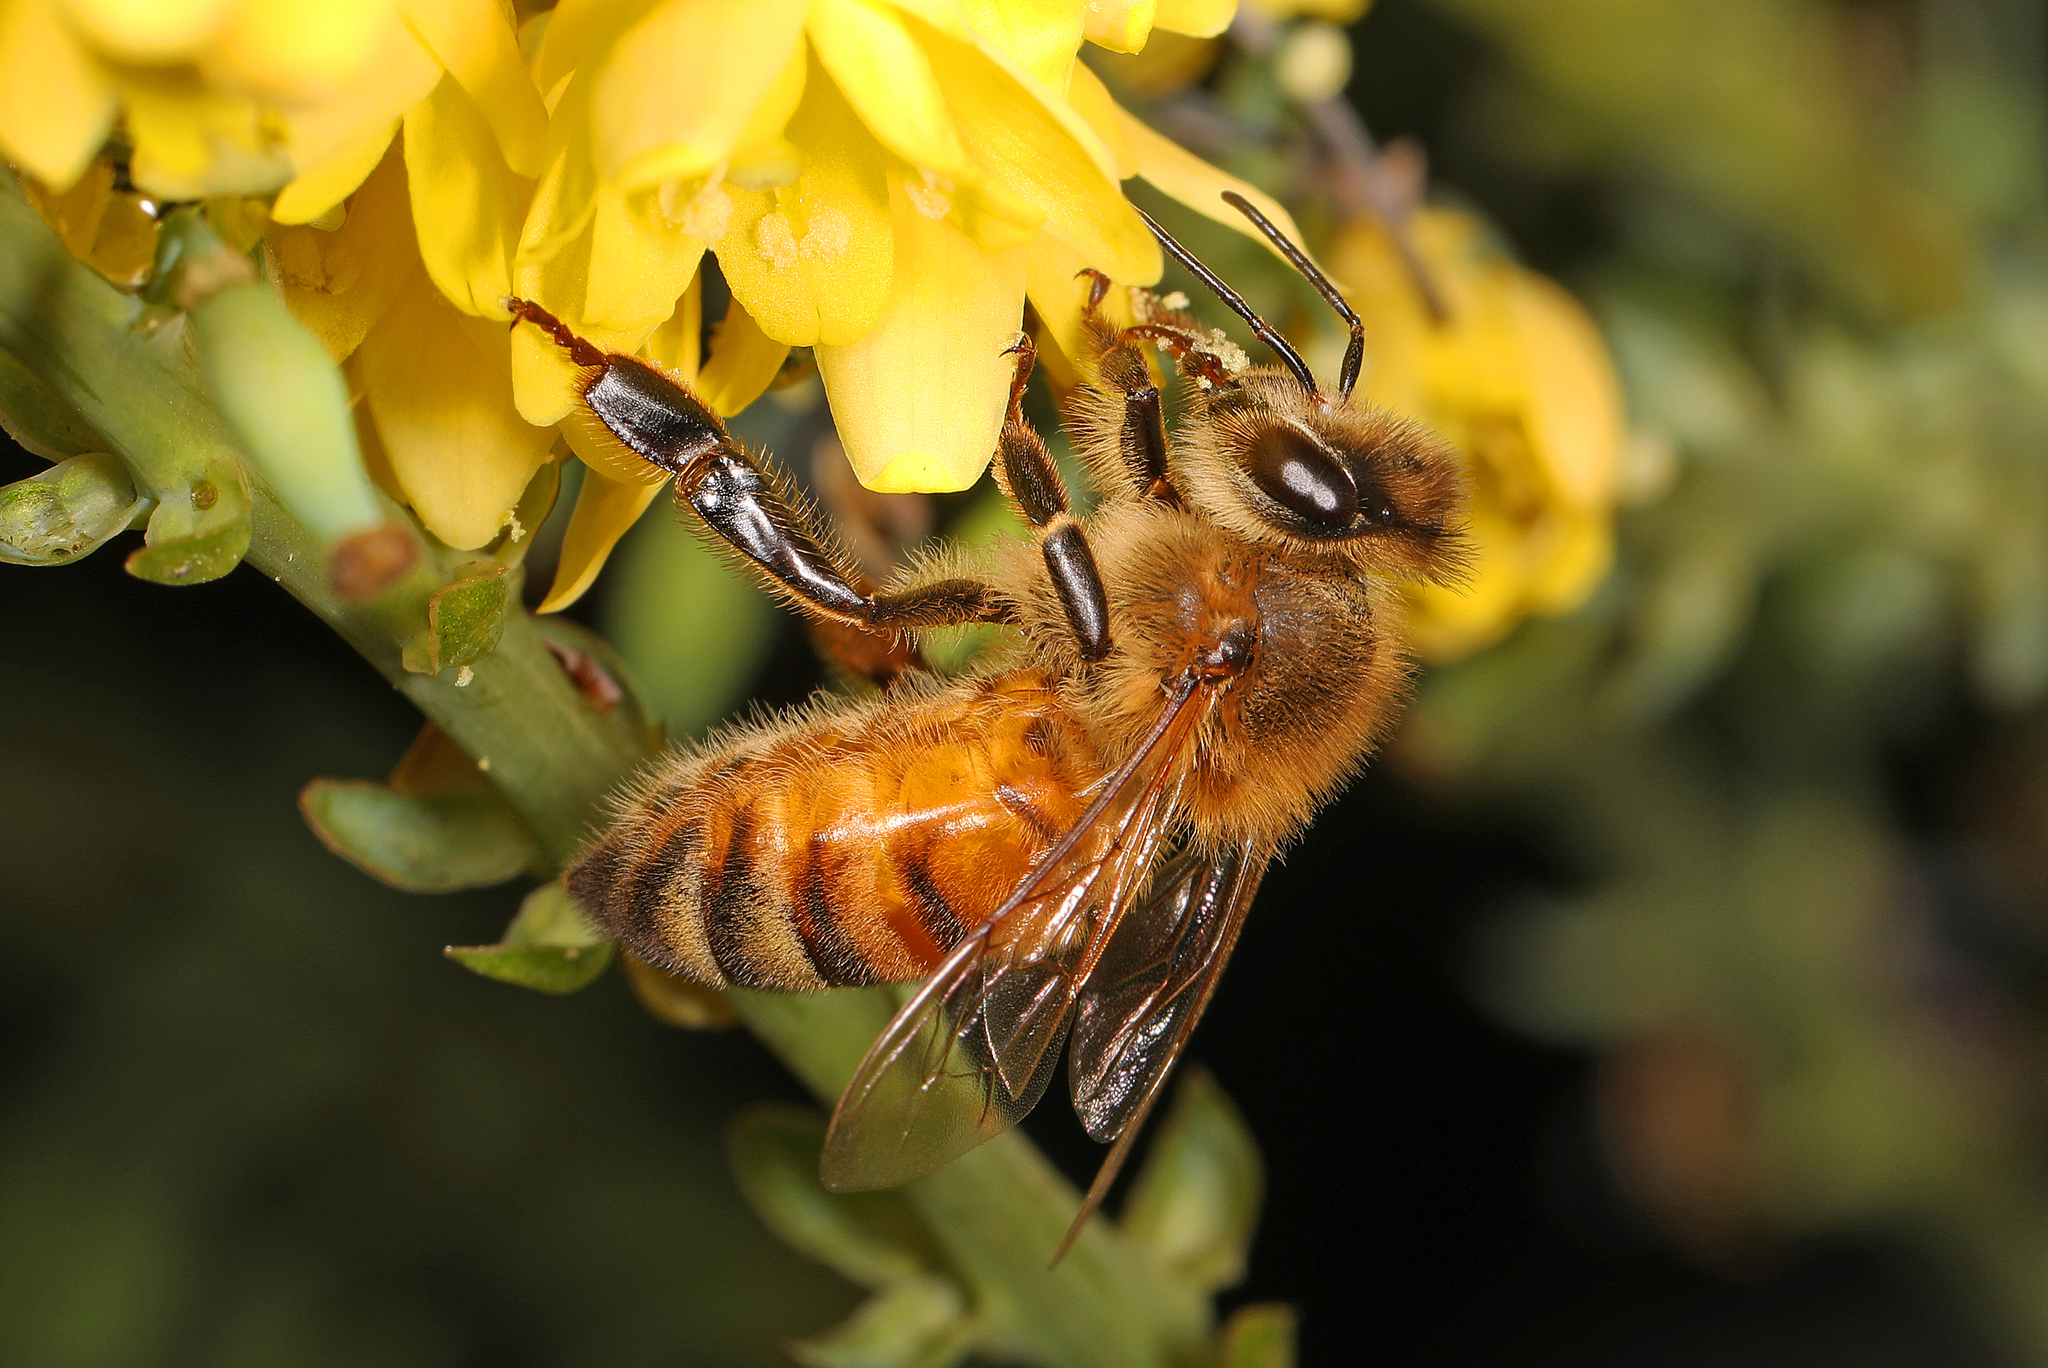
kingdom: Animalia
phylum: Arthropoda
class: Insecta
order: Hymenoptera
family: Apidae
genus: Apis
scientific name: Apis mellifera
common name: Honey bee
